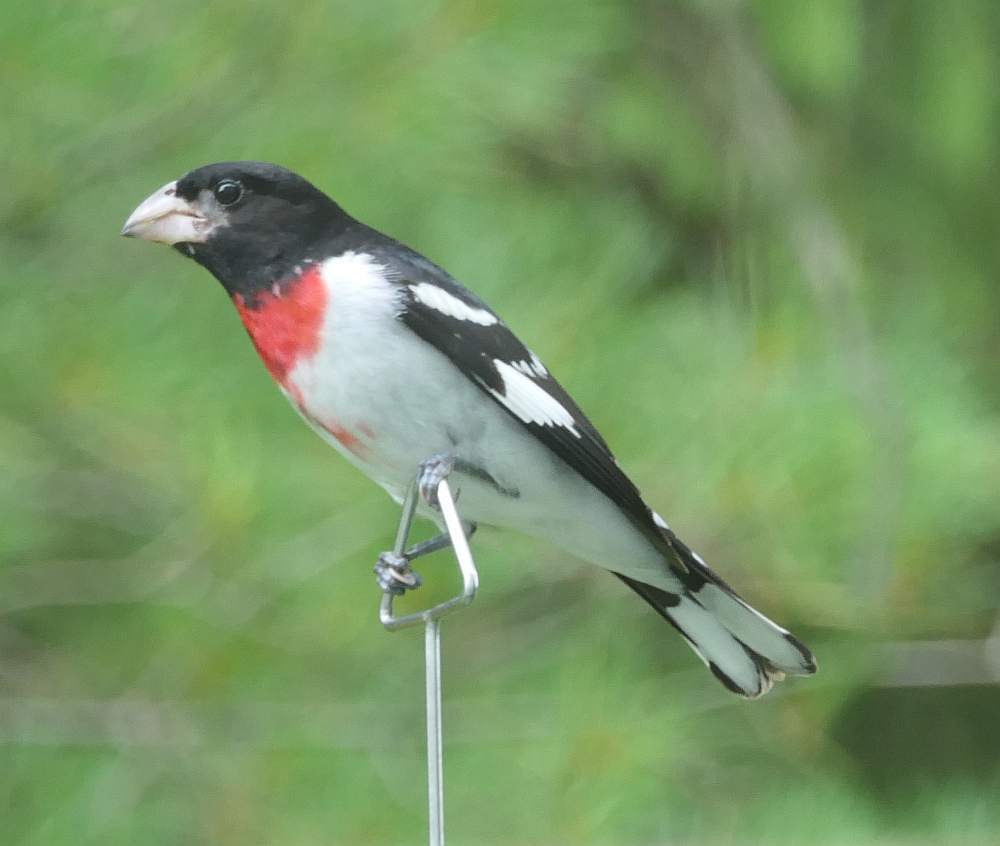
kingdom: Animalia
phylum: Chordata
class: Aves
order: Passeriformes
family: Cardinalidae
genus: Pheucticus
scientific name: Pheucticus ludovicianus
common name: Rose-breasted grosbeak
